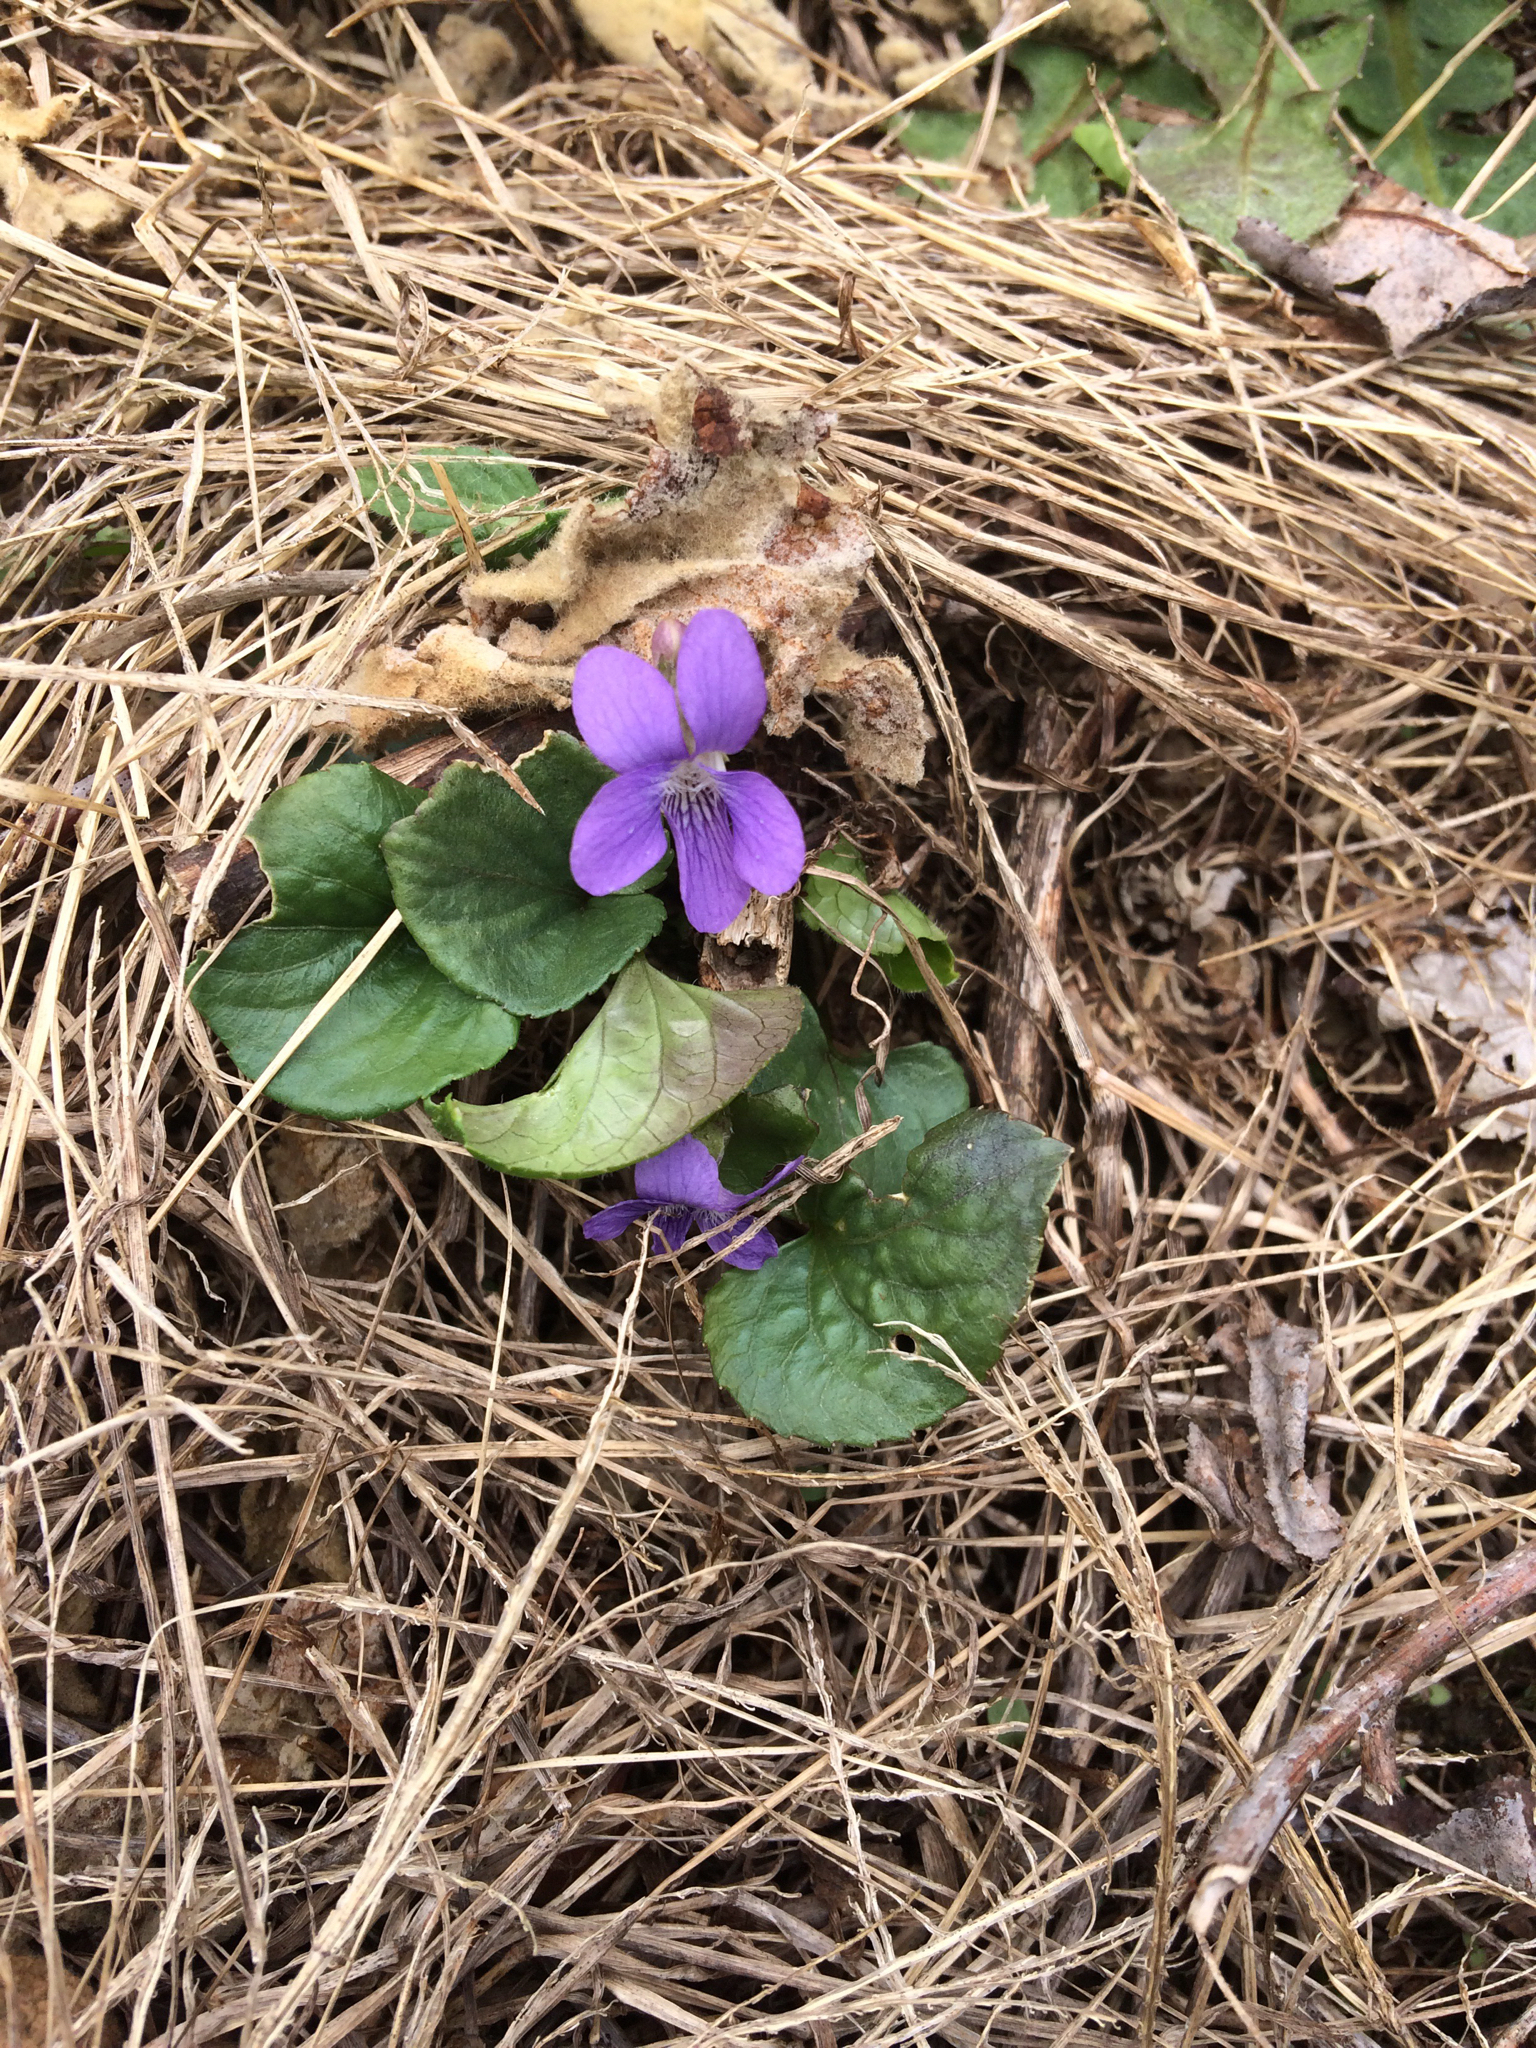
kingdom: Plantae
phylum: Tracheophyta
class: Magnoliopsida
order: Malpighiales
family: Violaceae
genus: Viola
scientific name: Viola sororia
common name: Dooryard violet
